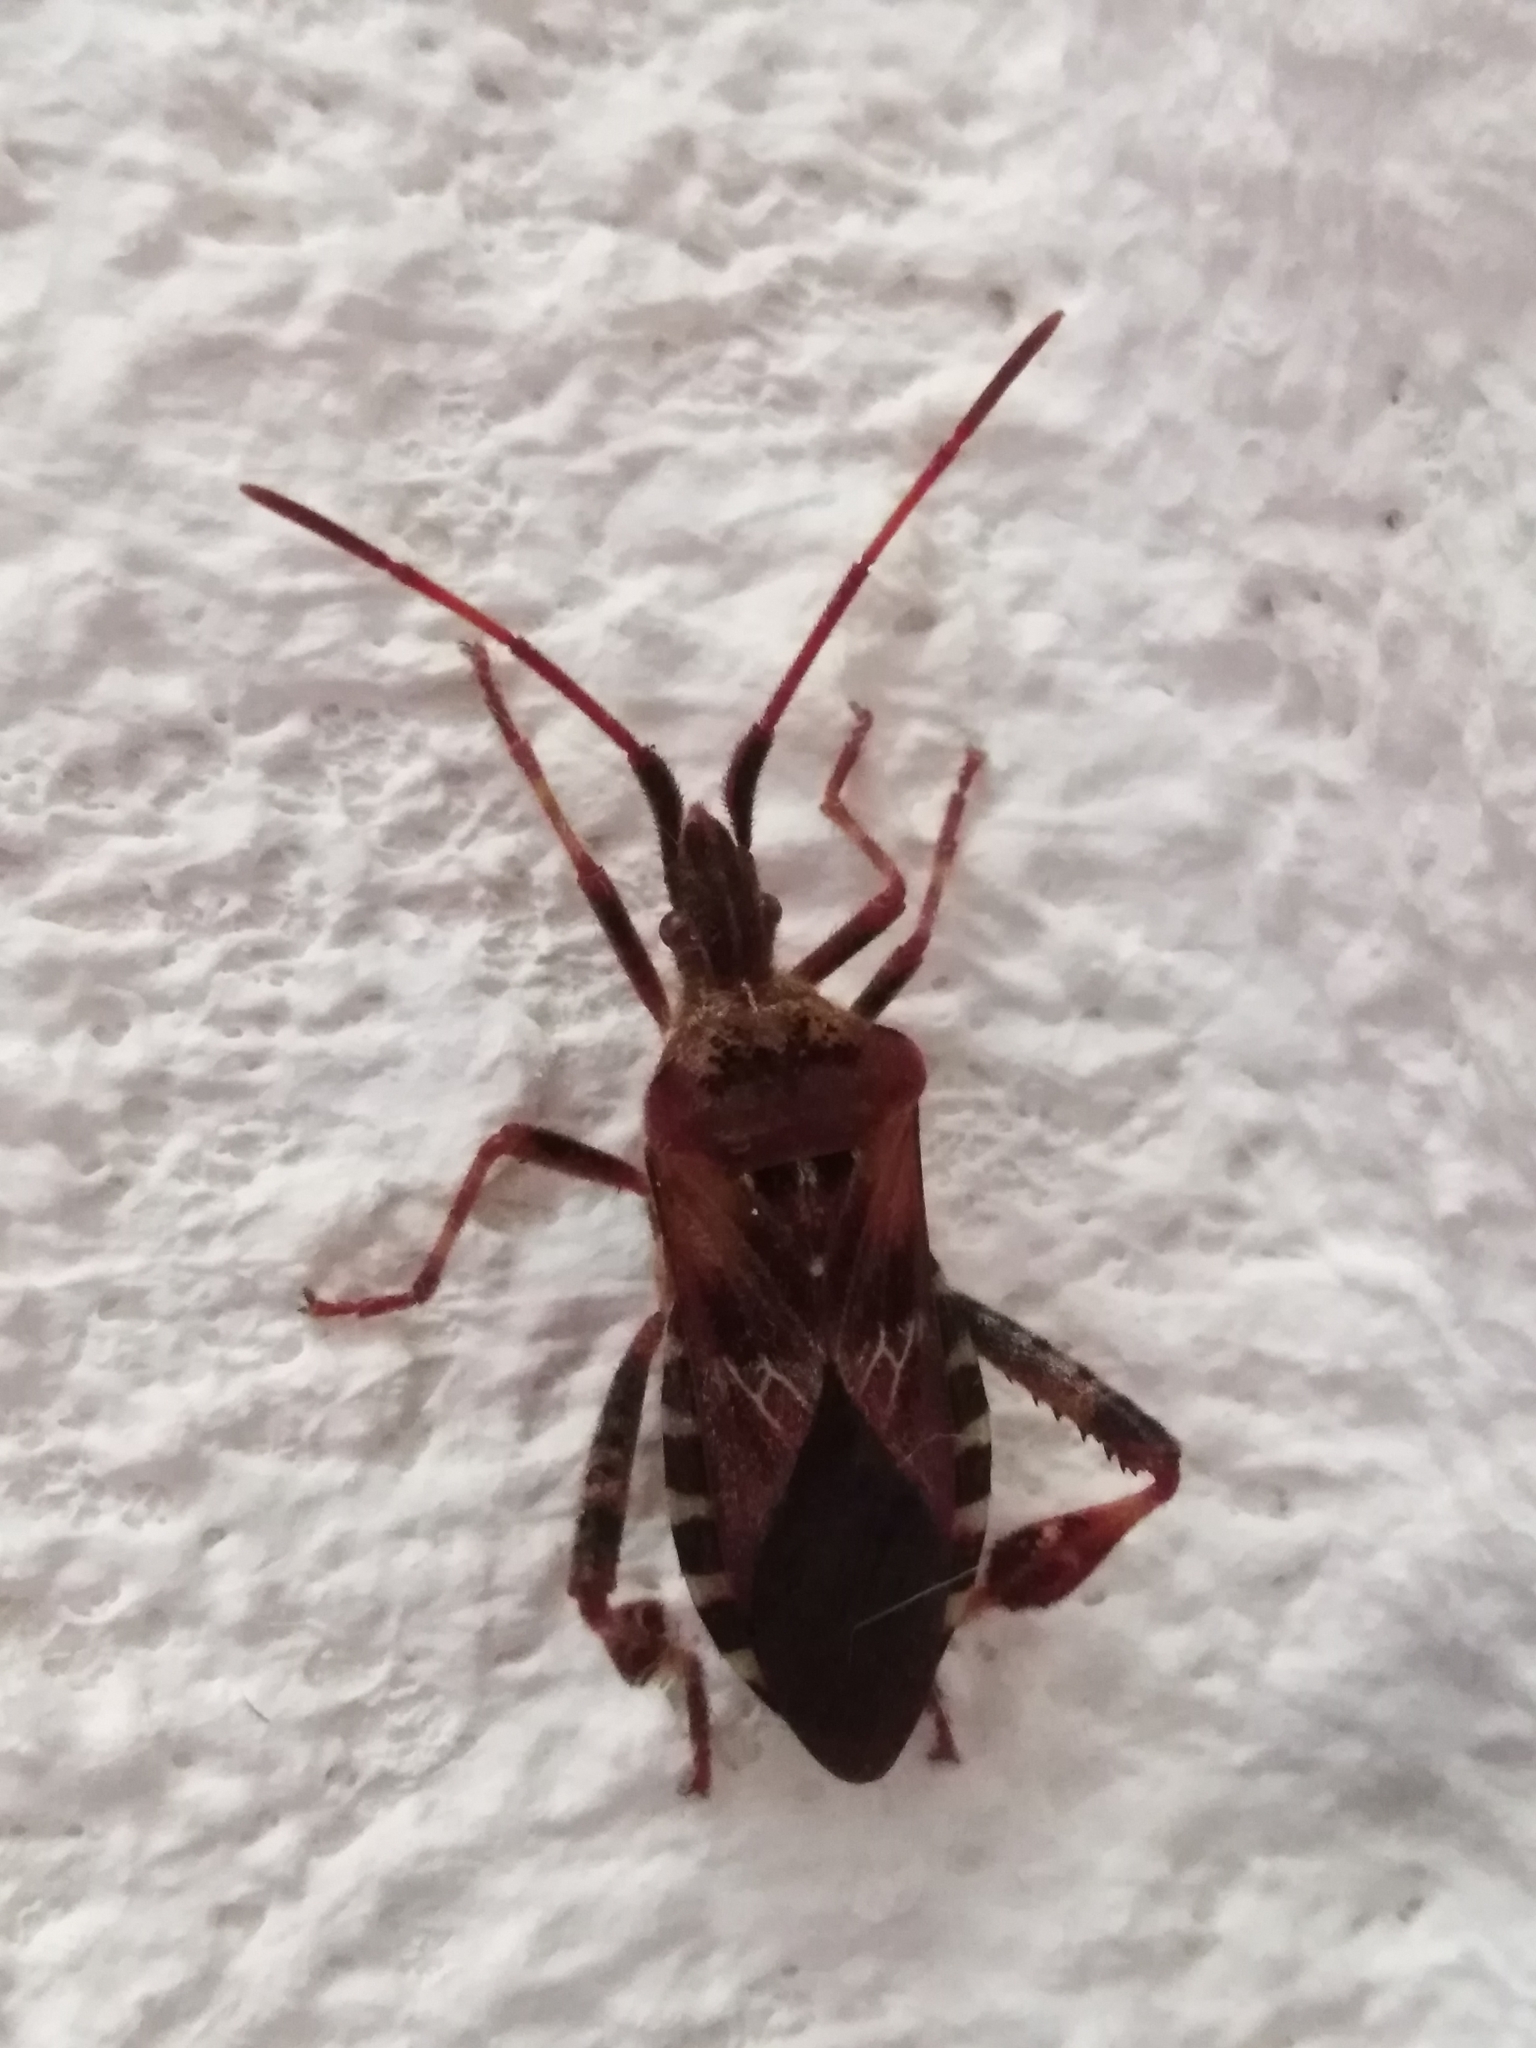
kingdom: Animalia
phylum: Arthropoda
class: Insecta
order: Hemiptera
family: Coreidae
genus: Leptoglossus
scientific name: Leptoglossus occidentalis
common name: Western conifer-seed bug
